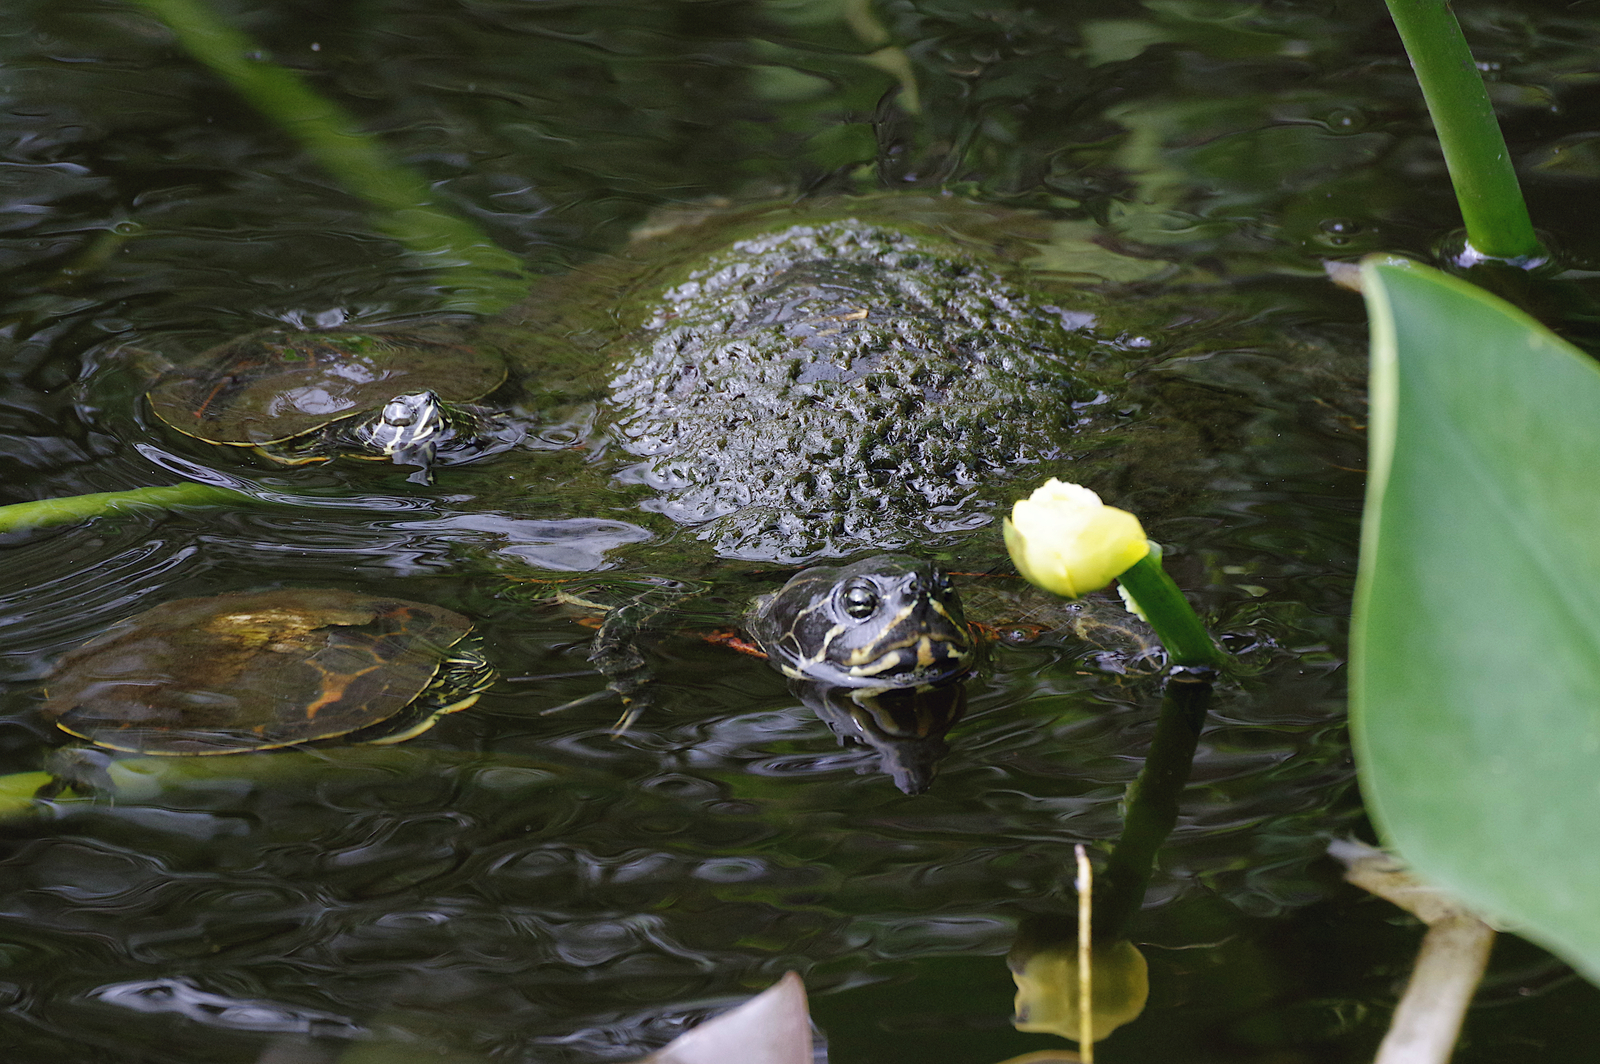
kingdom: Animalia
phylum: Chordata
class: Testudines
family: Emydidae
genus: Pseudemys
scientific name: Pseudemys nelsoni
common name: Florida red-bellied turtle
